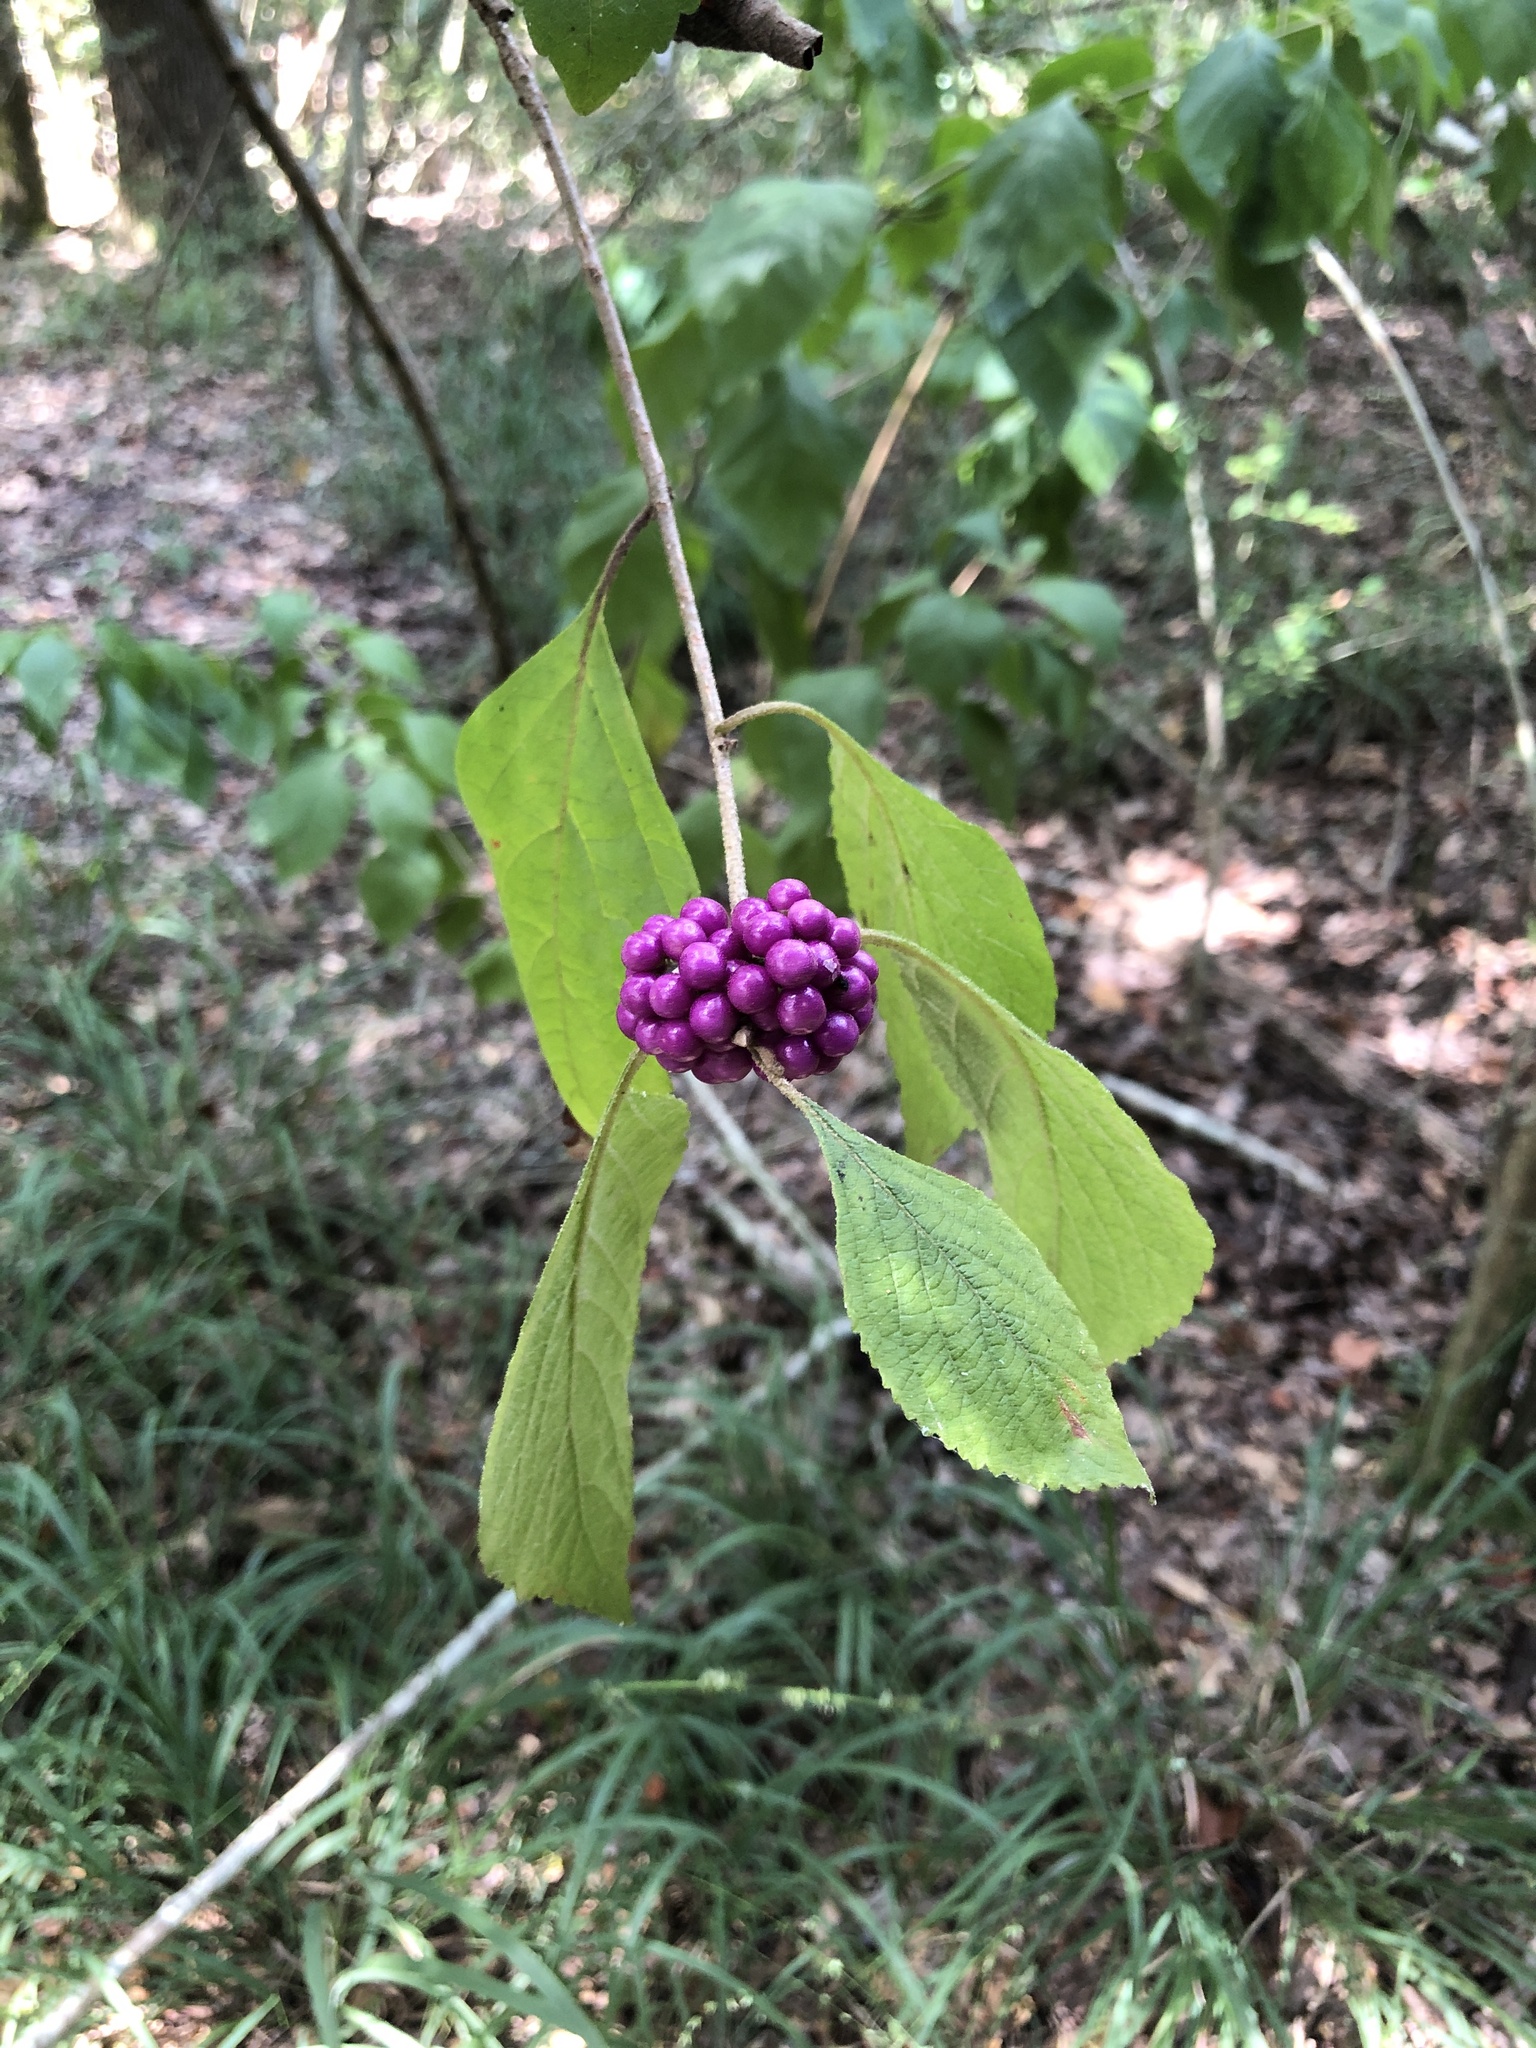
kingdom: Plantae
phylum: Tracheophyta
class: Magnoliopsida
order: Lamiales
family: Lamiaceae
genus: Callicarpa
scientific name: Callicarpa americana
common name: American beautyberry
